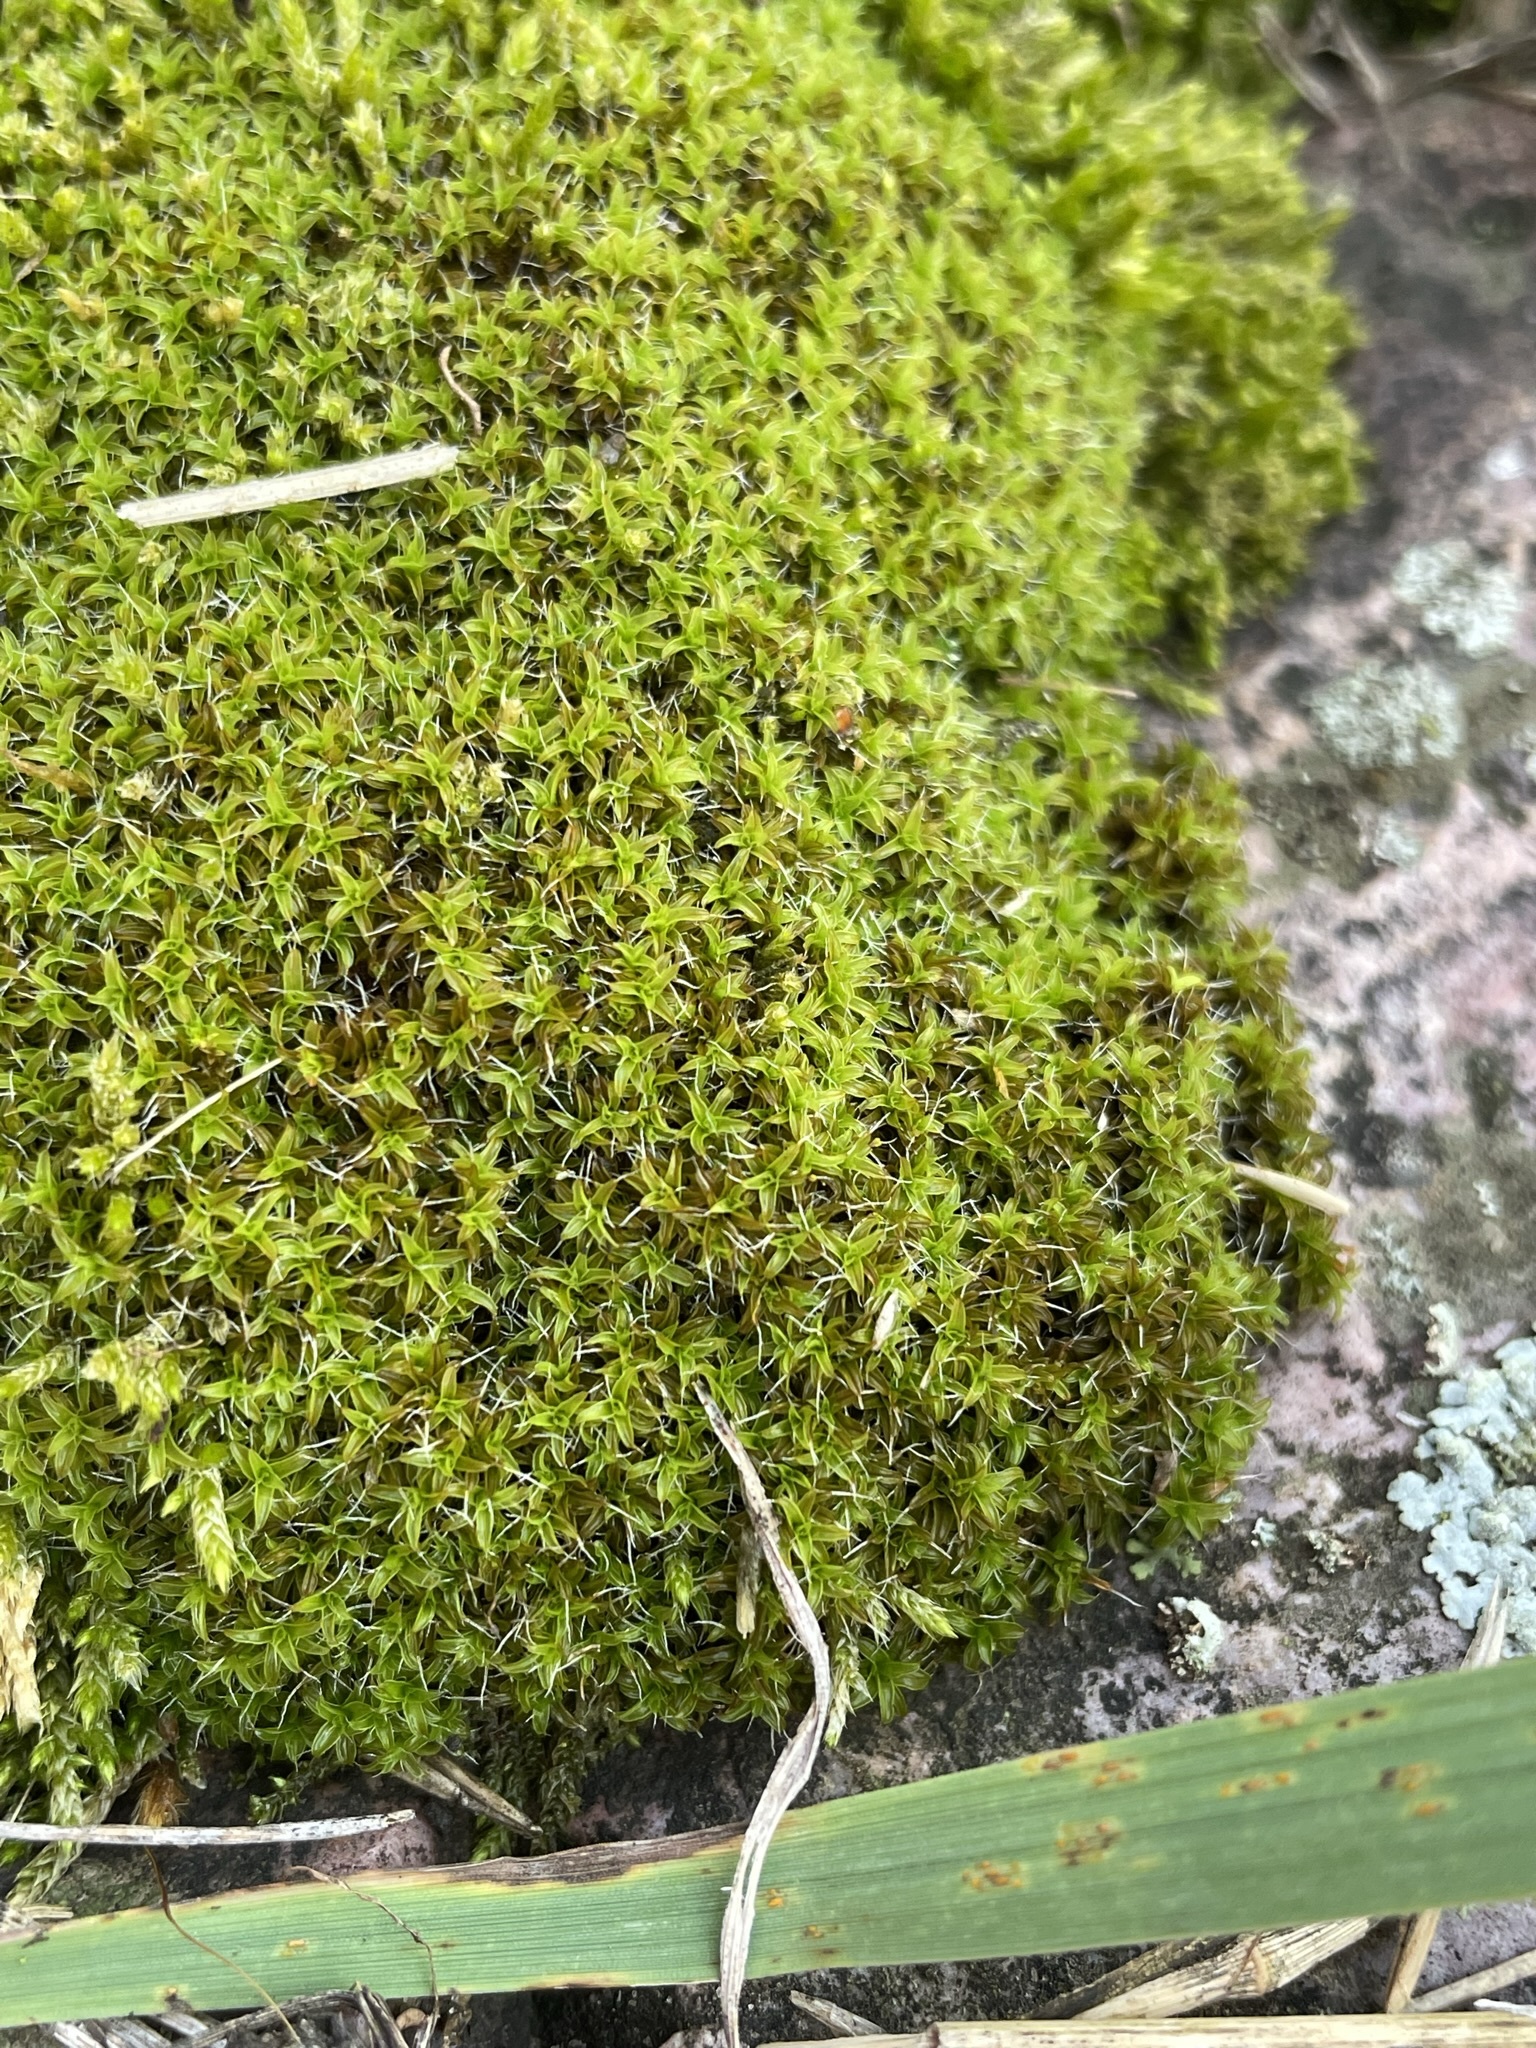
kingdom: Plantae
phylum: Bryophyta
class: Bryopsida
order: Pottiales
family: Pottiaceae
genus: Syntrichia
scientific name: Syntrichia ruralis
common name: Sidewalk screw moss
